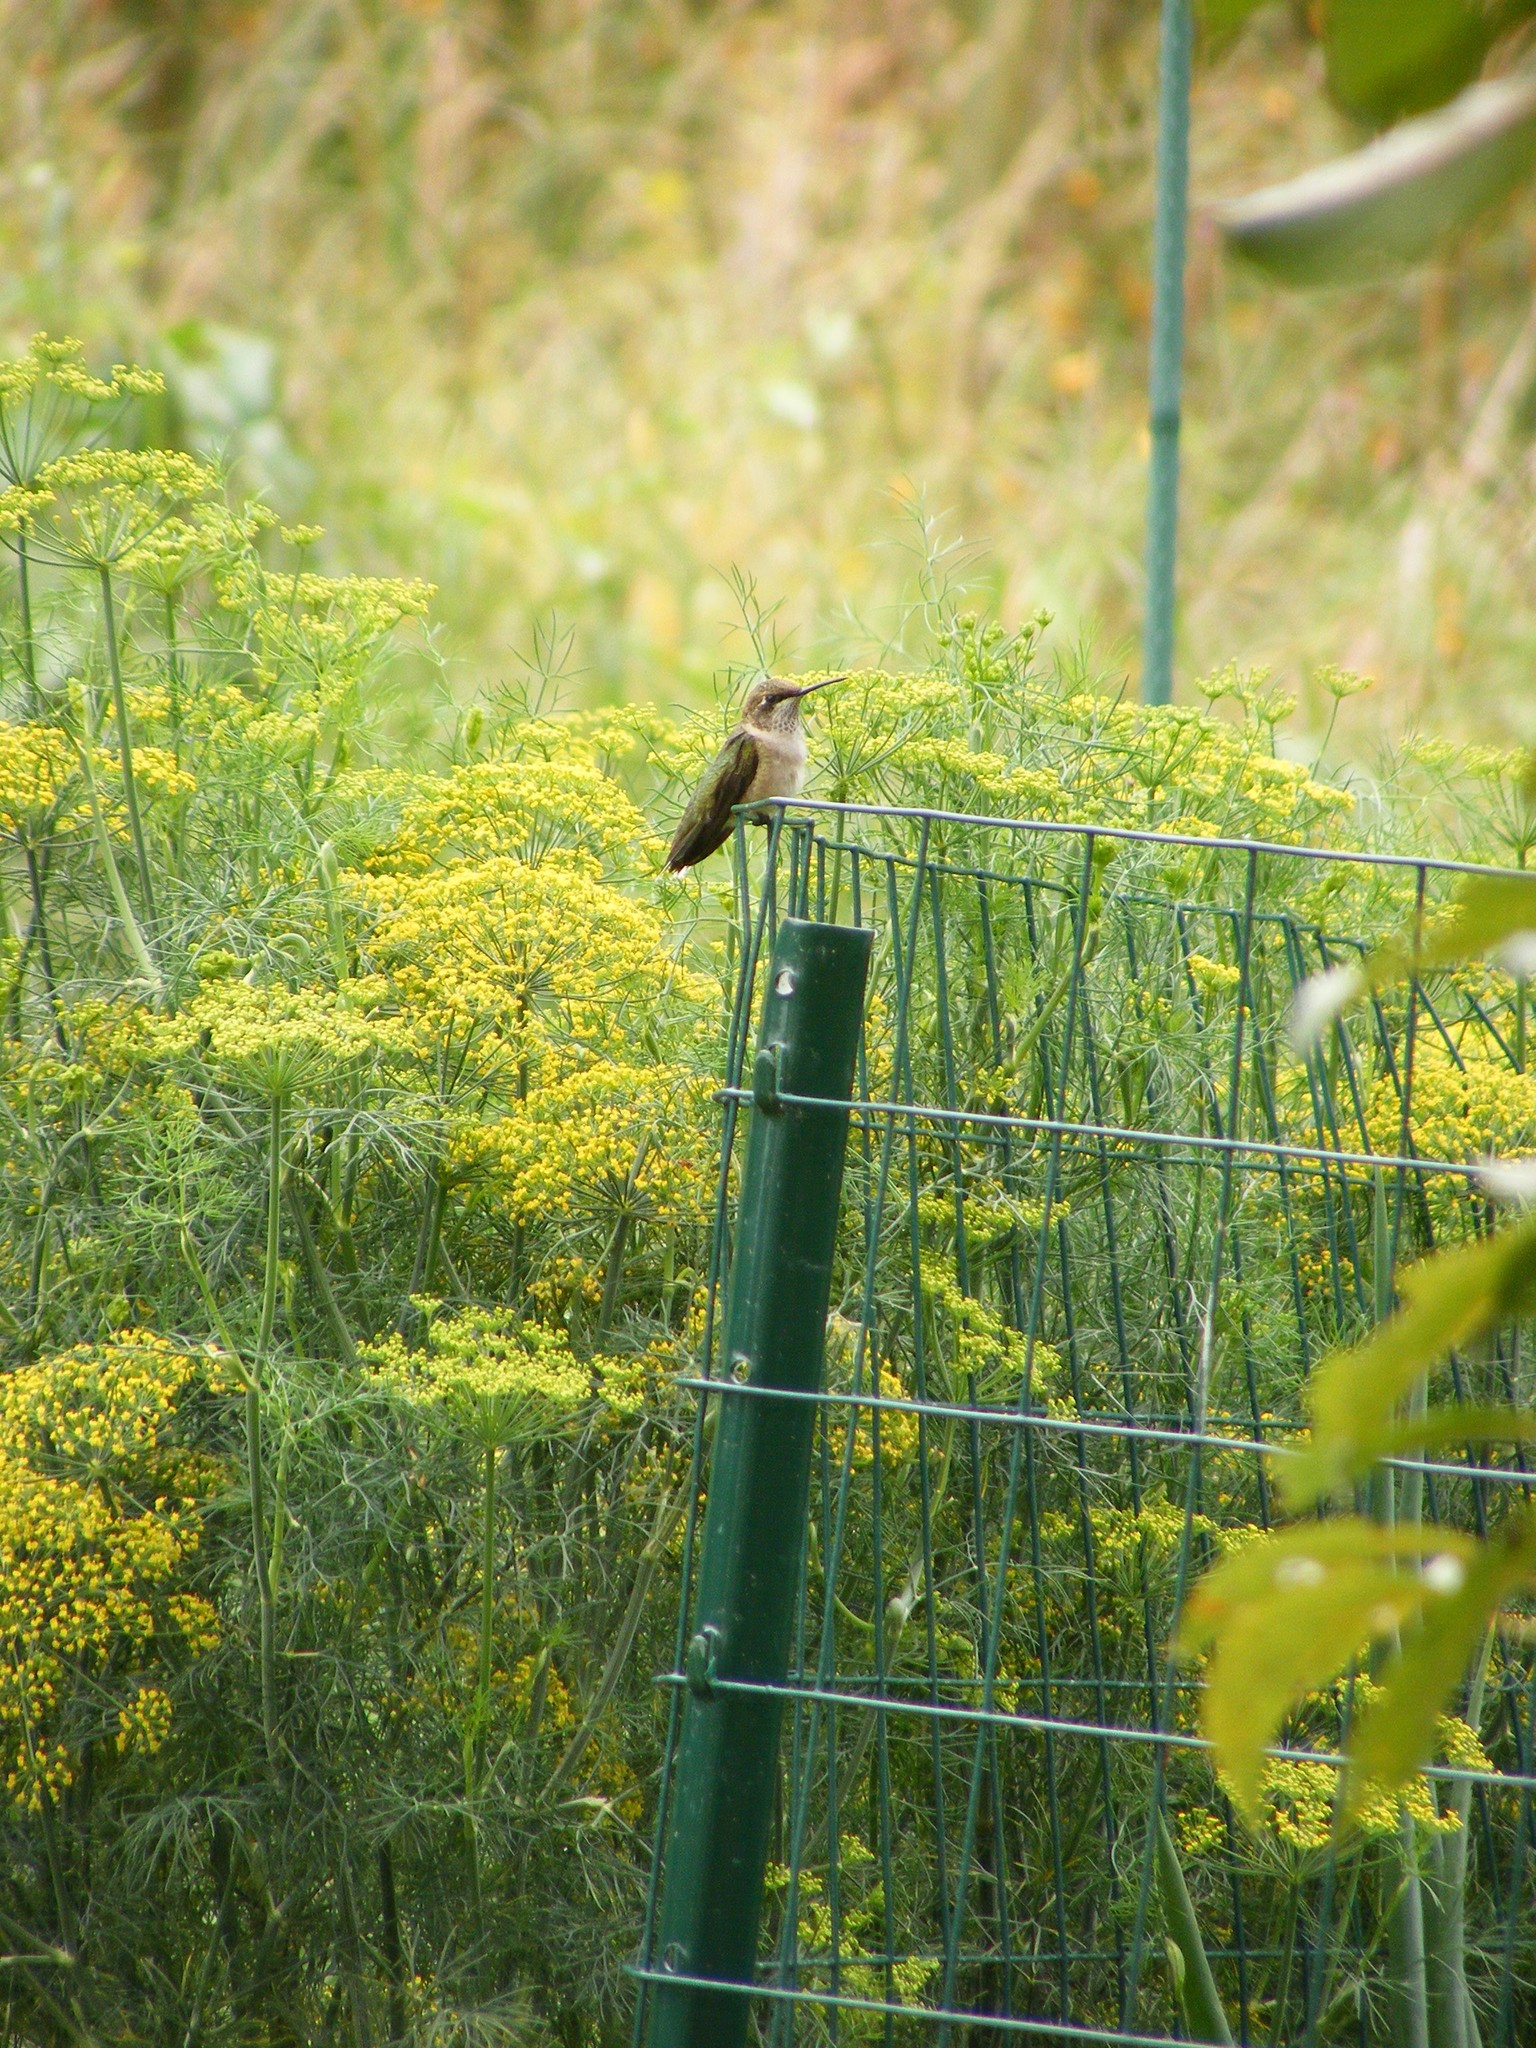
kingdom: Animalia
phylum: Chordata
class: Aves
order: Apodiformes
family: Trochilidae
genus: Archilochus
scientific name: Archilochus colubris
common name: Ruby-throated hummingbird
